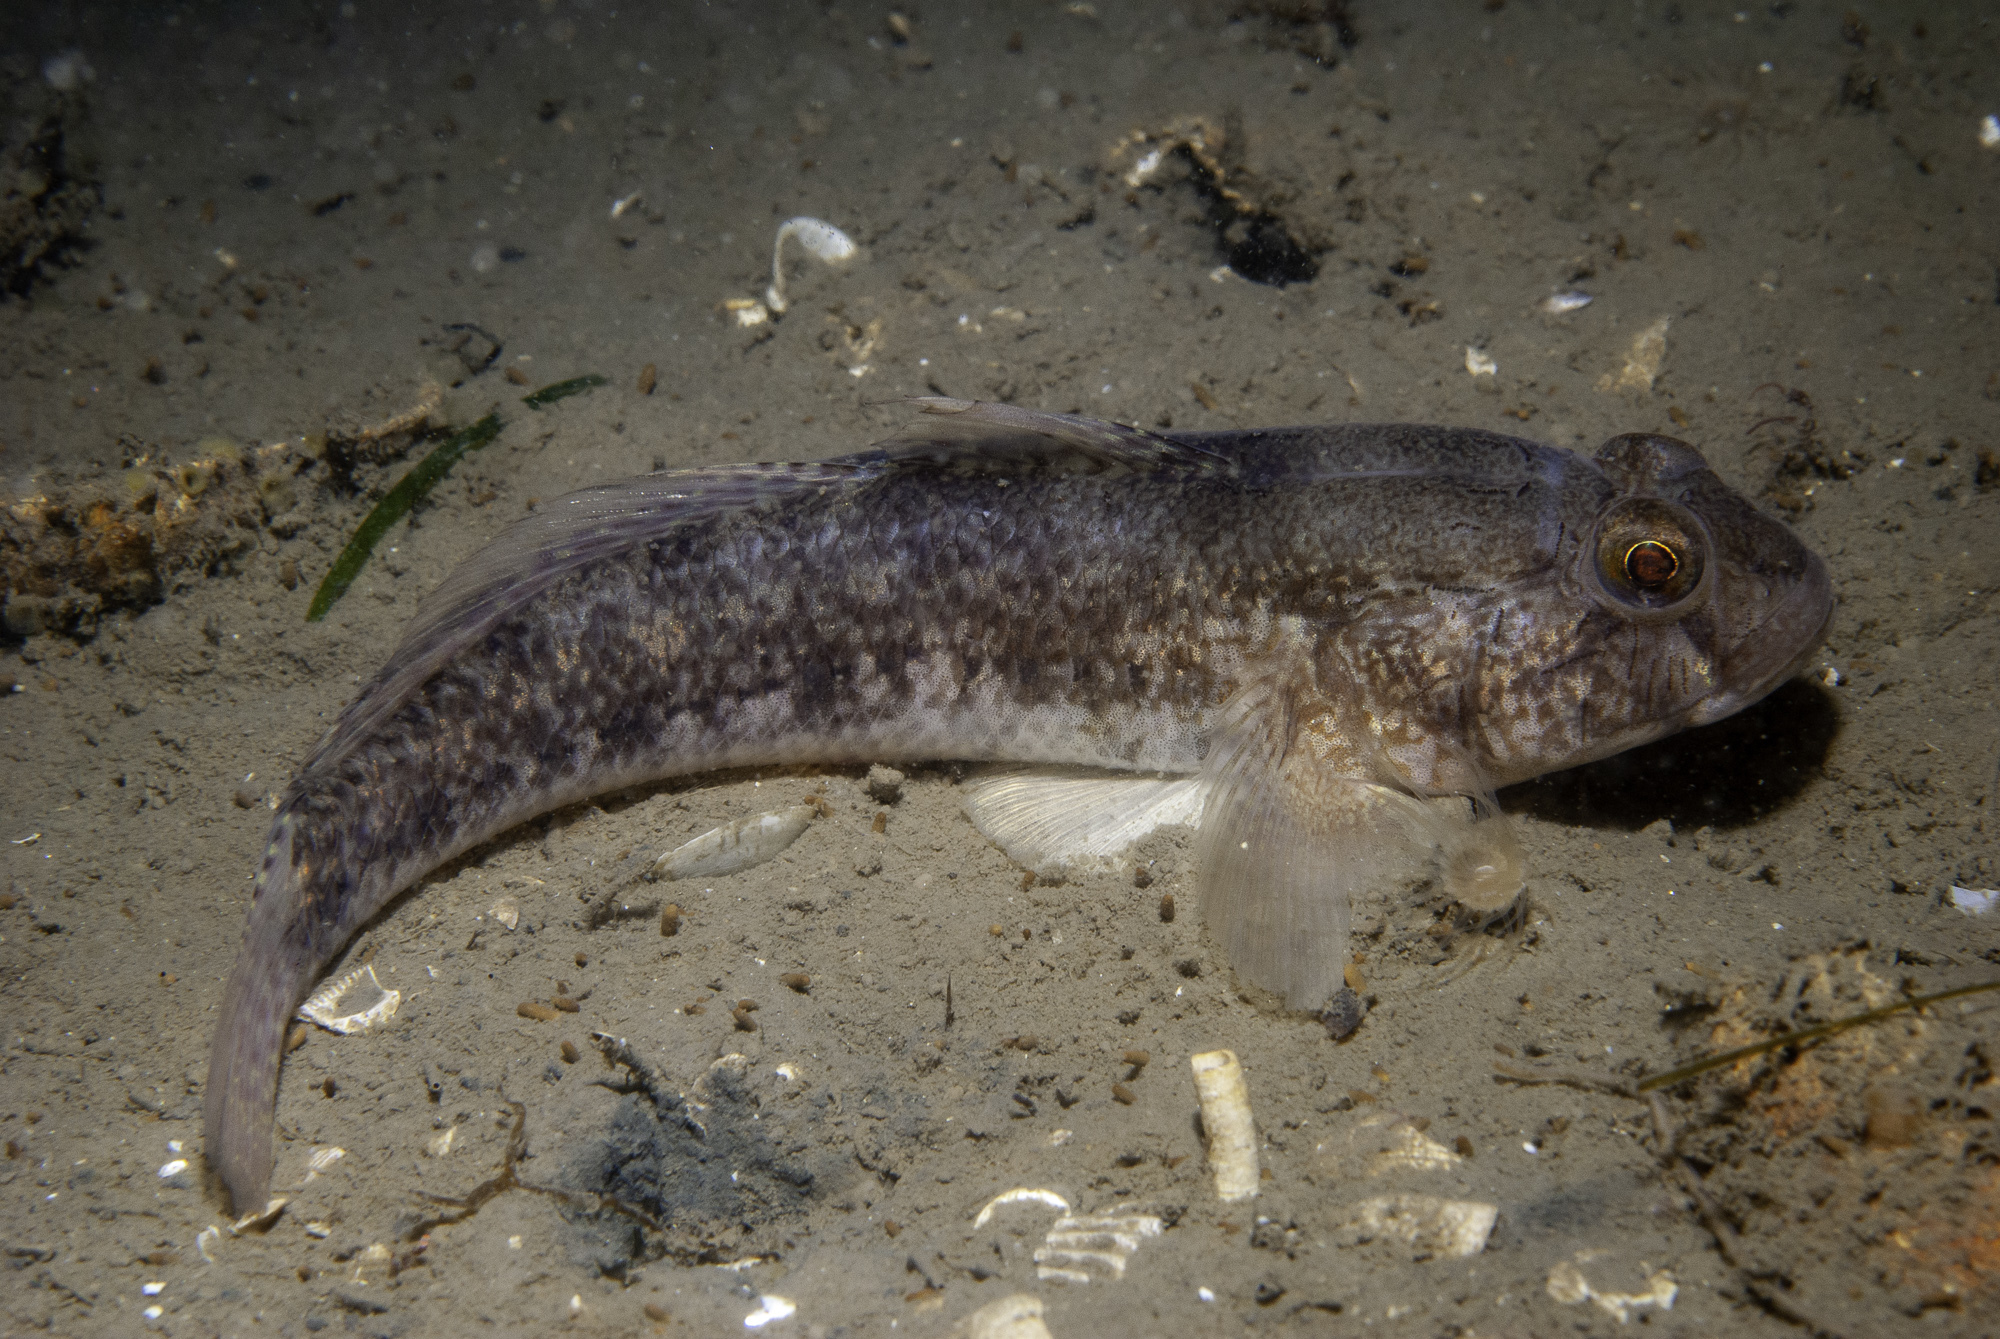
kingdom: Animalia
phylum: Chordata
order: Perciformes
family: Gobiidae
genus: Gobius
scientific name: Gobius niger
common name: Black goby
